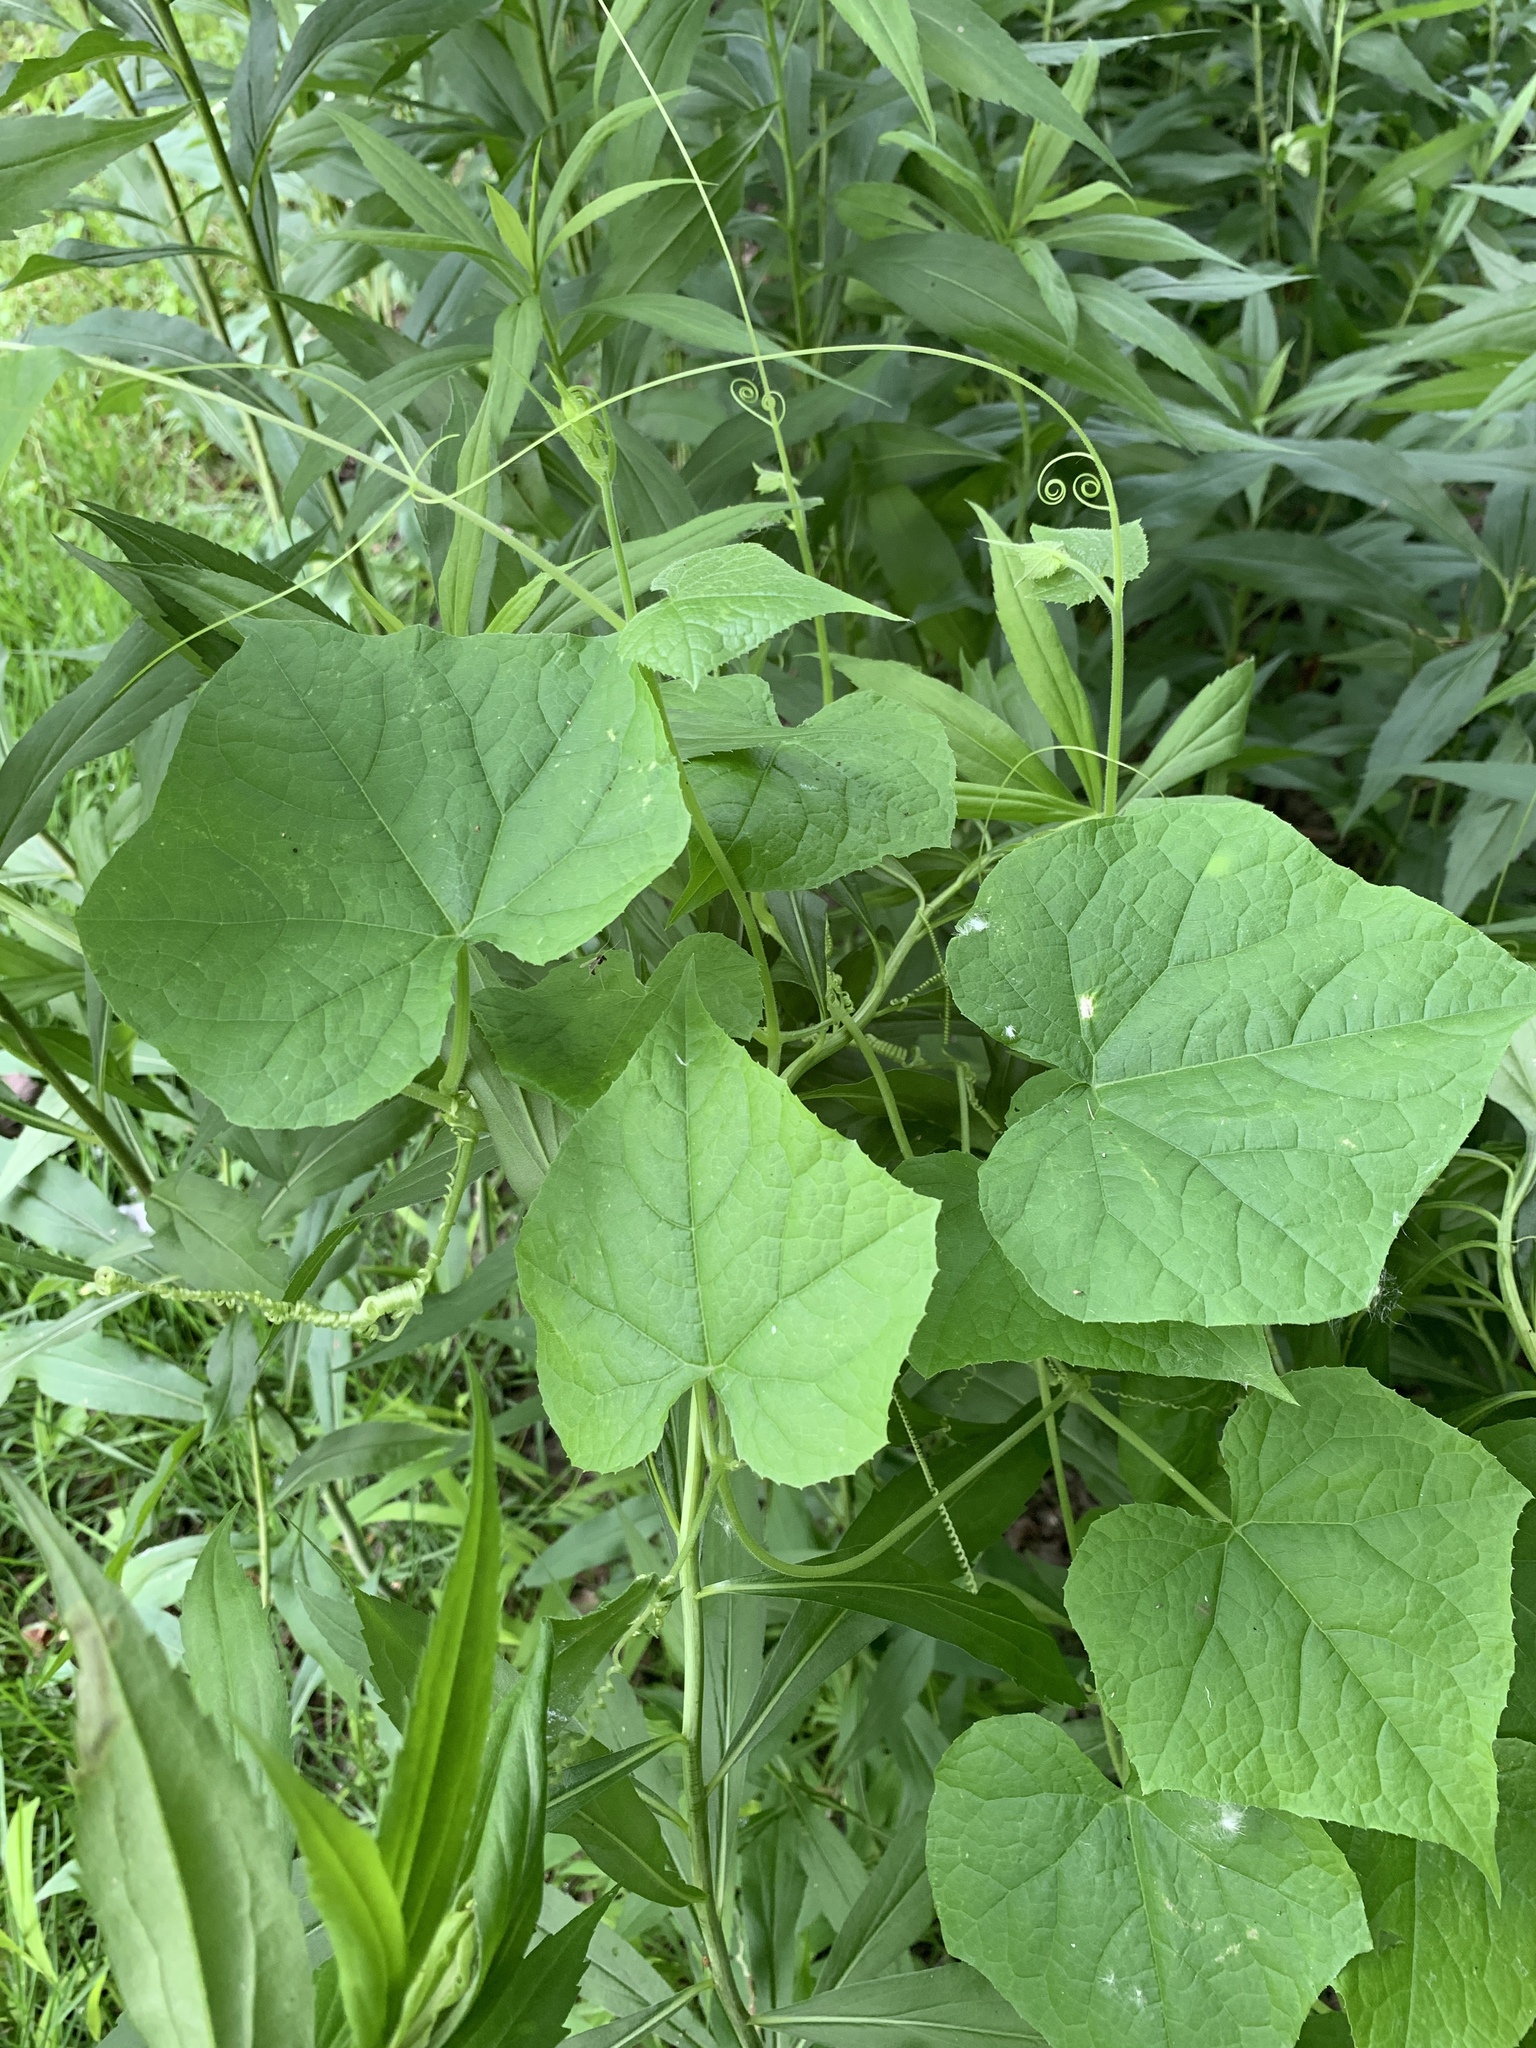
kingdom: Plantae
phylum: Tracheophyta
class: Magnoliopsida
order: Cucurbitales
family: Cucurbitaceae
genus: Sicyos
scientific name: Sicyos angulatus
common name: Angled burr cucumber
